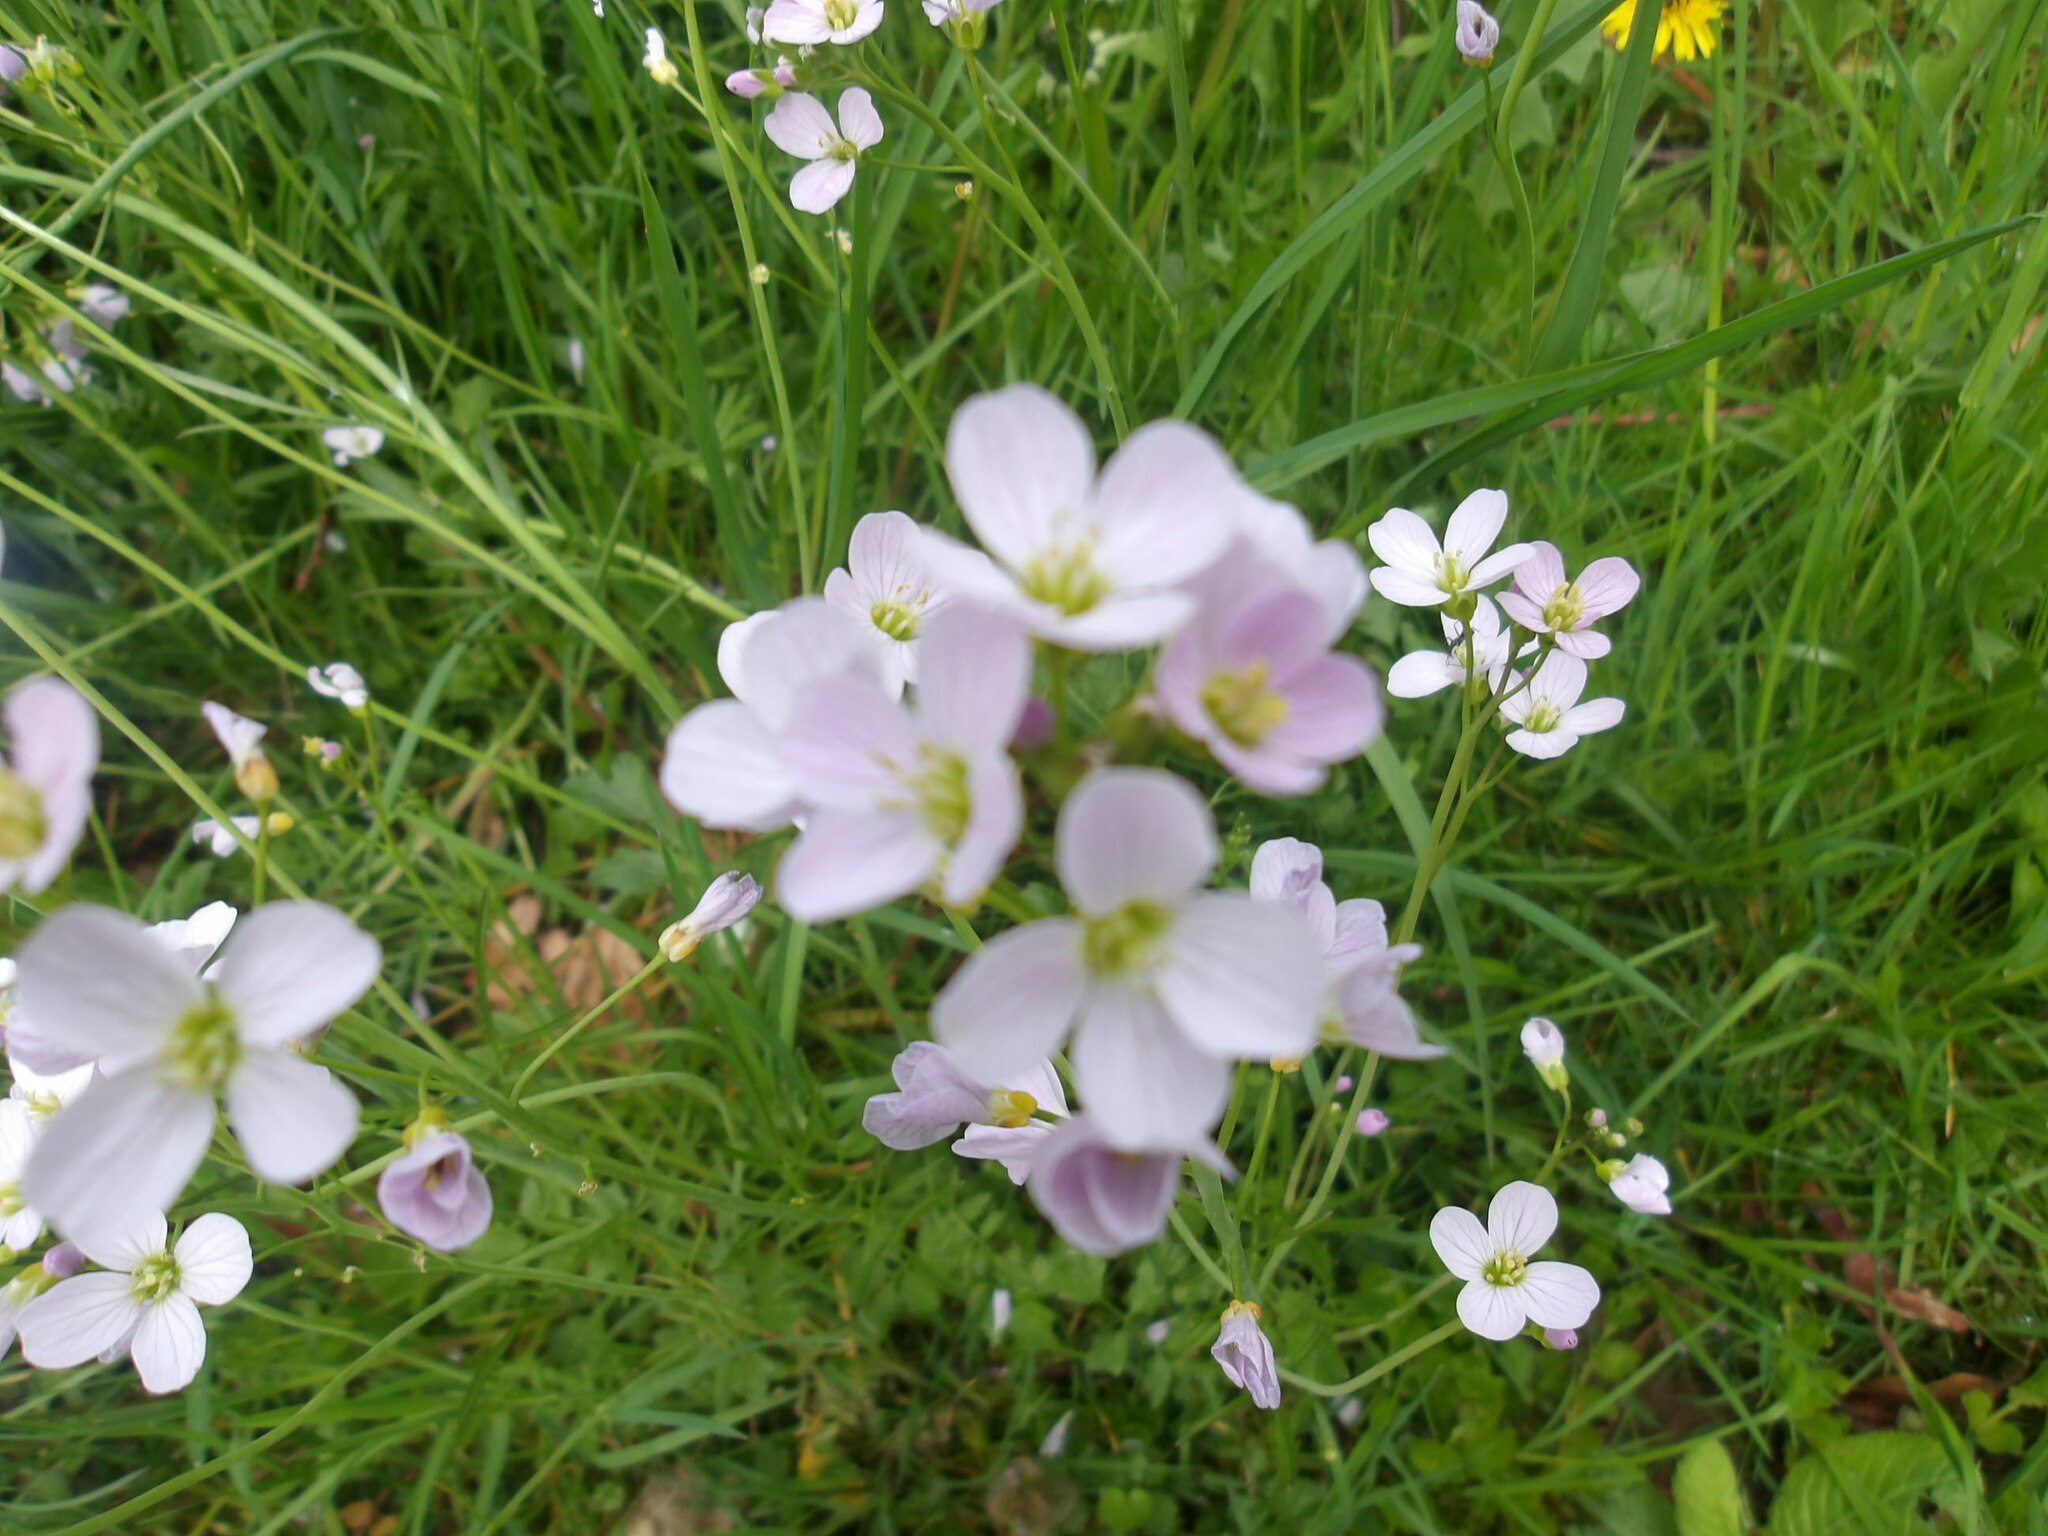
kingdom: Plantae
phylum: Tracheophyta
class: Magnoliopsida
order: Brassicales
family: Brassicaceae
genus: Cardamine
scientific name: Cardamine pratensis
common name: Cuckoo flower
